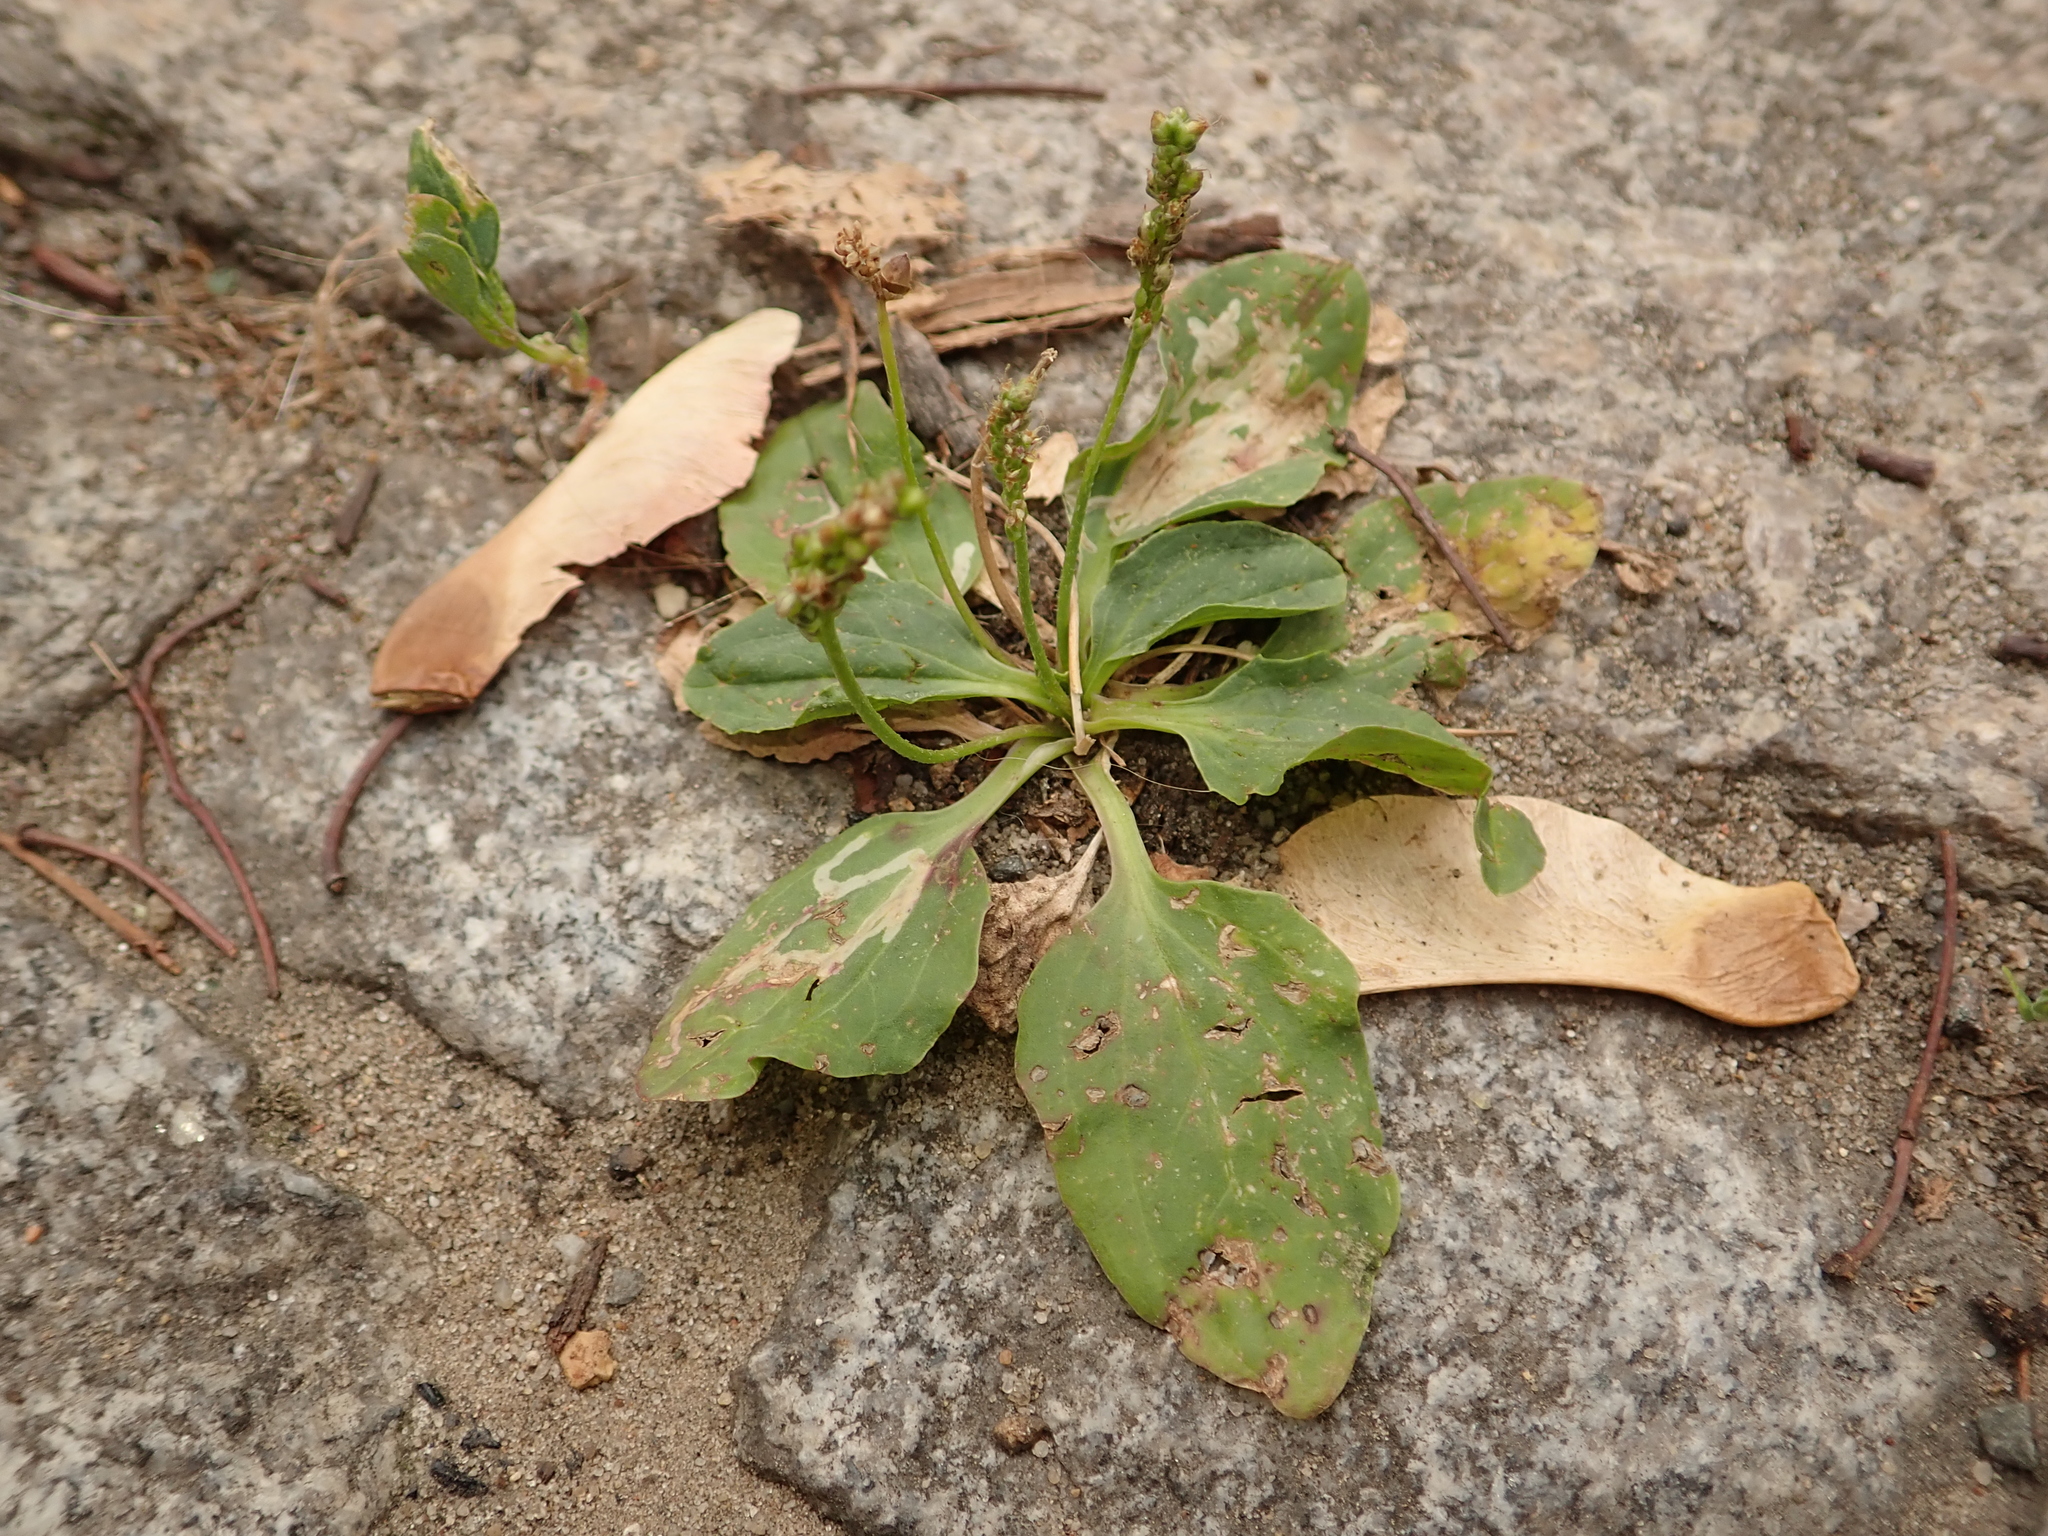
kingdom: Plantae
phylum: Tracheophyta
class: Magnoliopsida
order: Lamiales
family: Plantaginaceae
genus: Plantago
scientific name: Plantago major
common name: Common plantain
